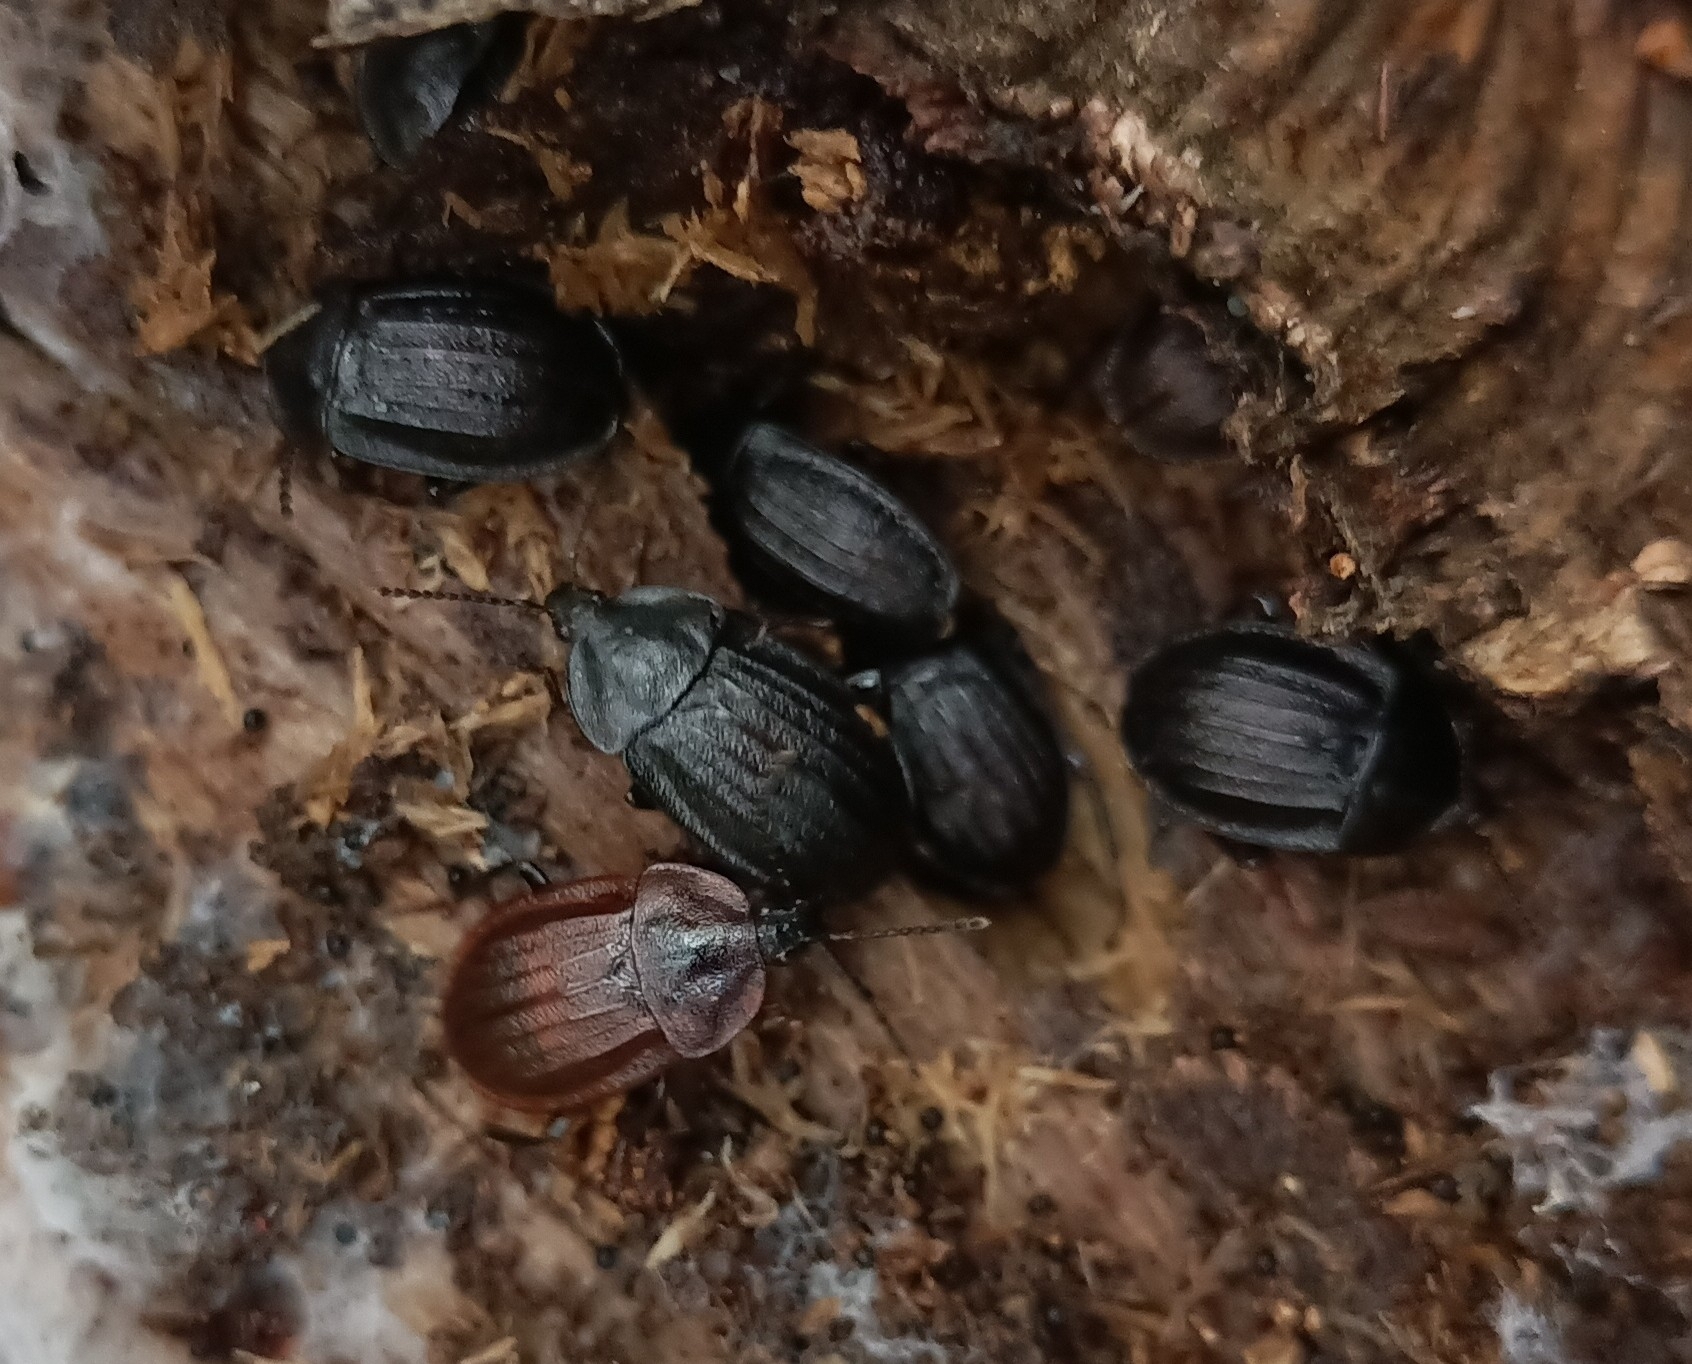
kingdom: Animalia
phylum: Arthropoda
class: Insecta
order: Coleoptera
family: Staphylinidae
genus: Silpha
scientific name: Silpha atrata
